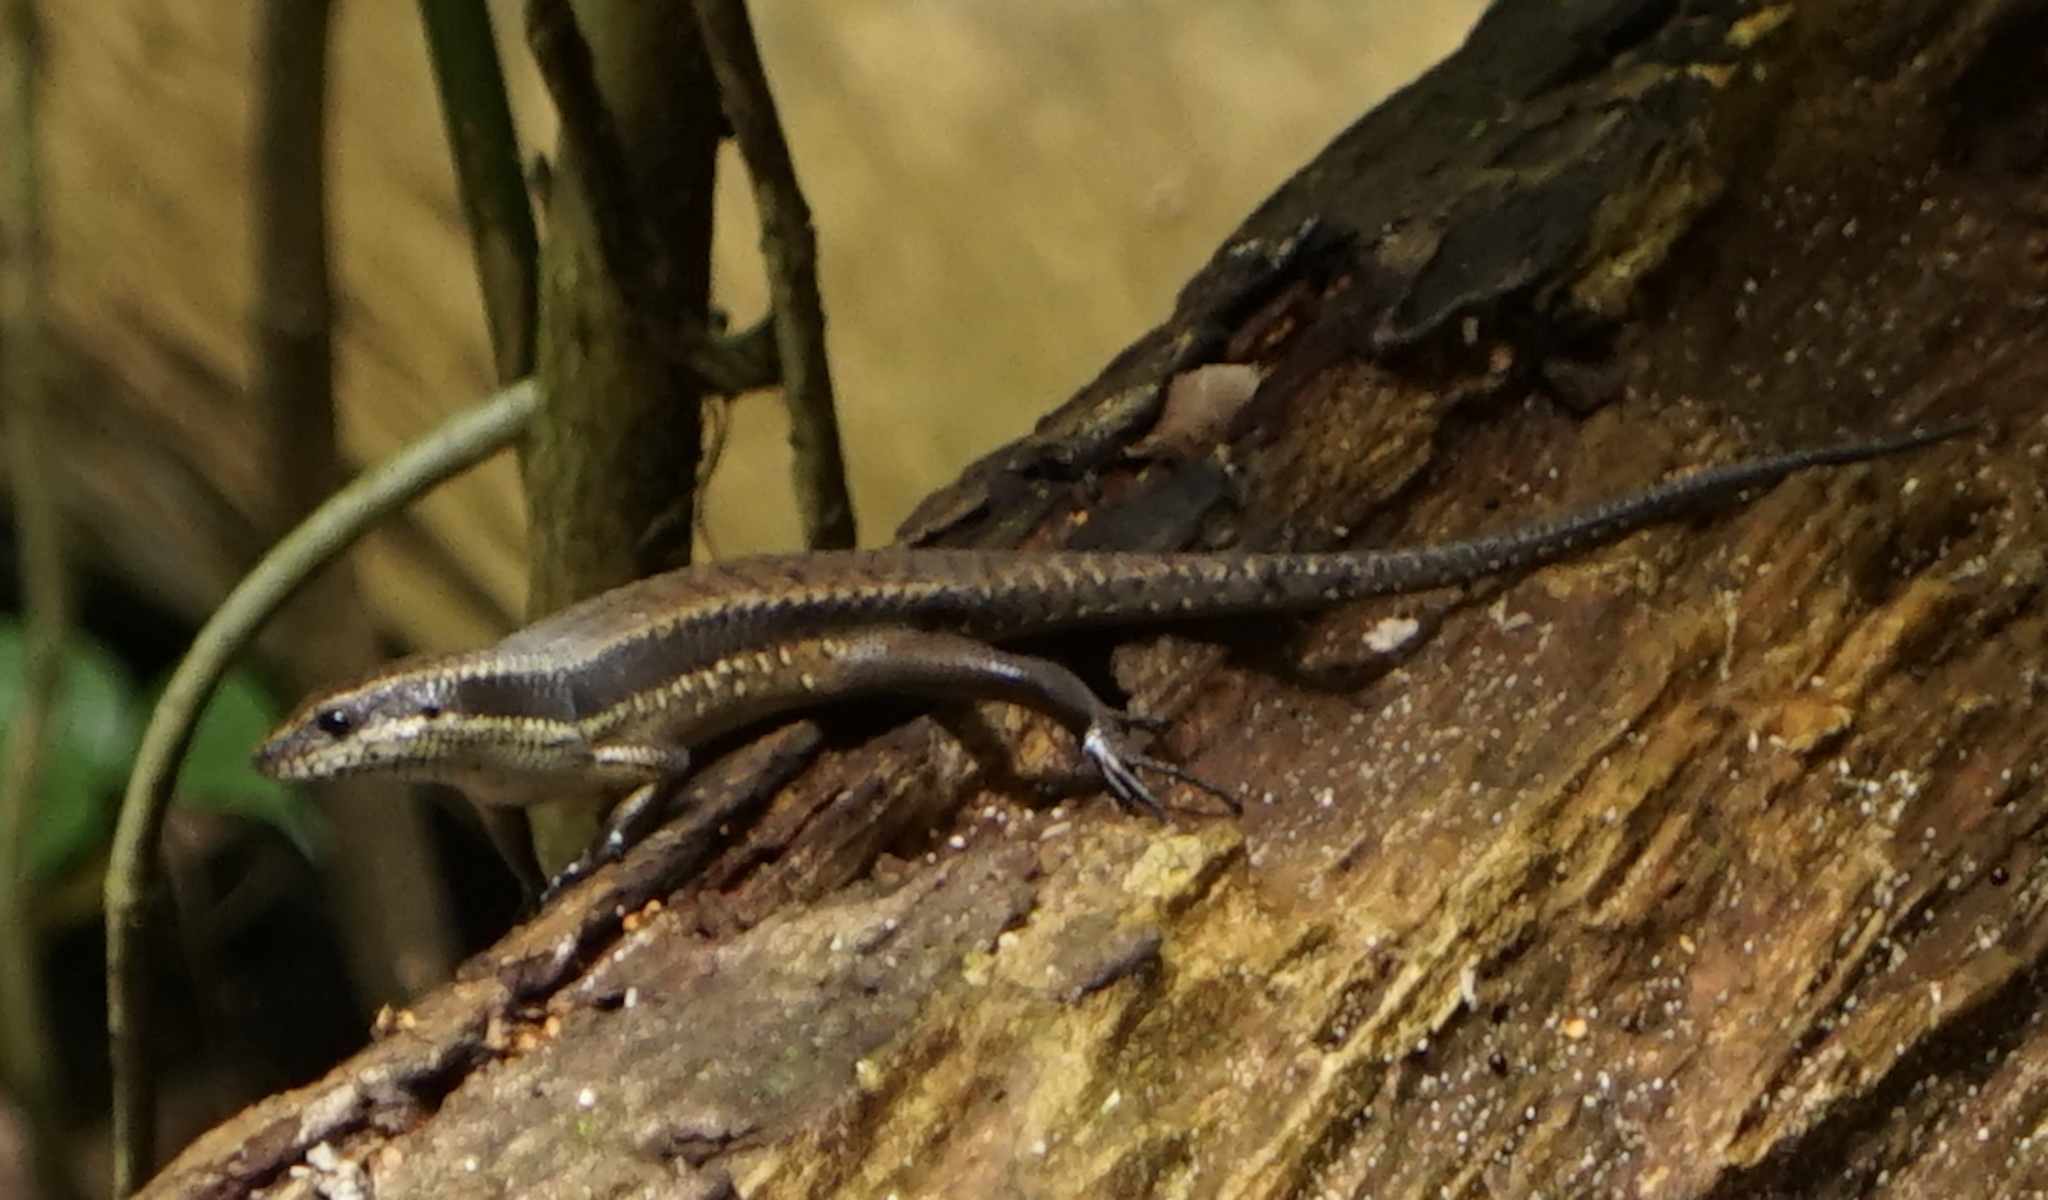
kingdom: Animalia
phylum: Chordata
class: Squamata
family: Scincidae
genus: Eutropis
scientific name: Eutropis rudis
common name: Rough mabuya
